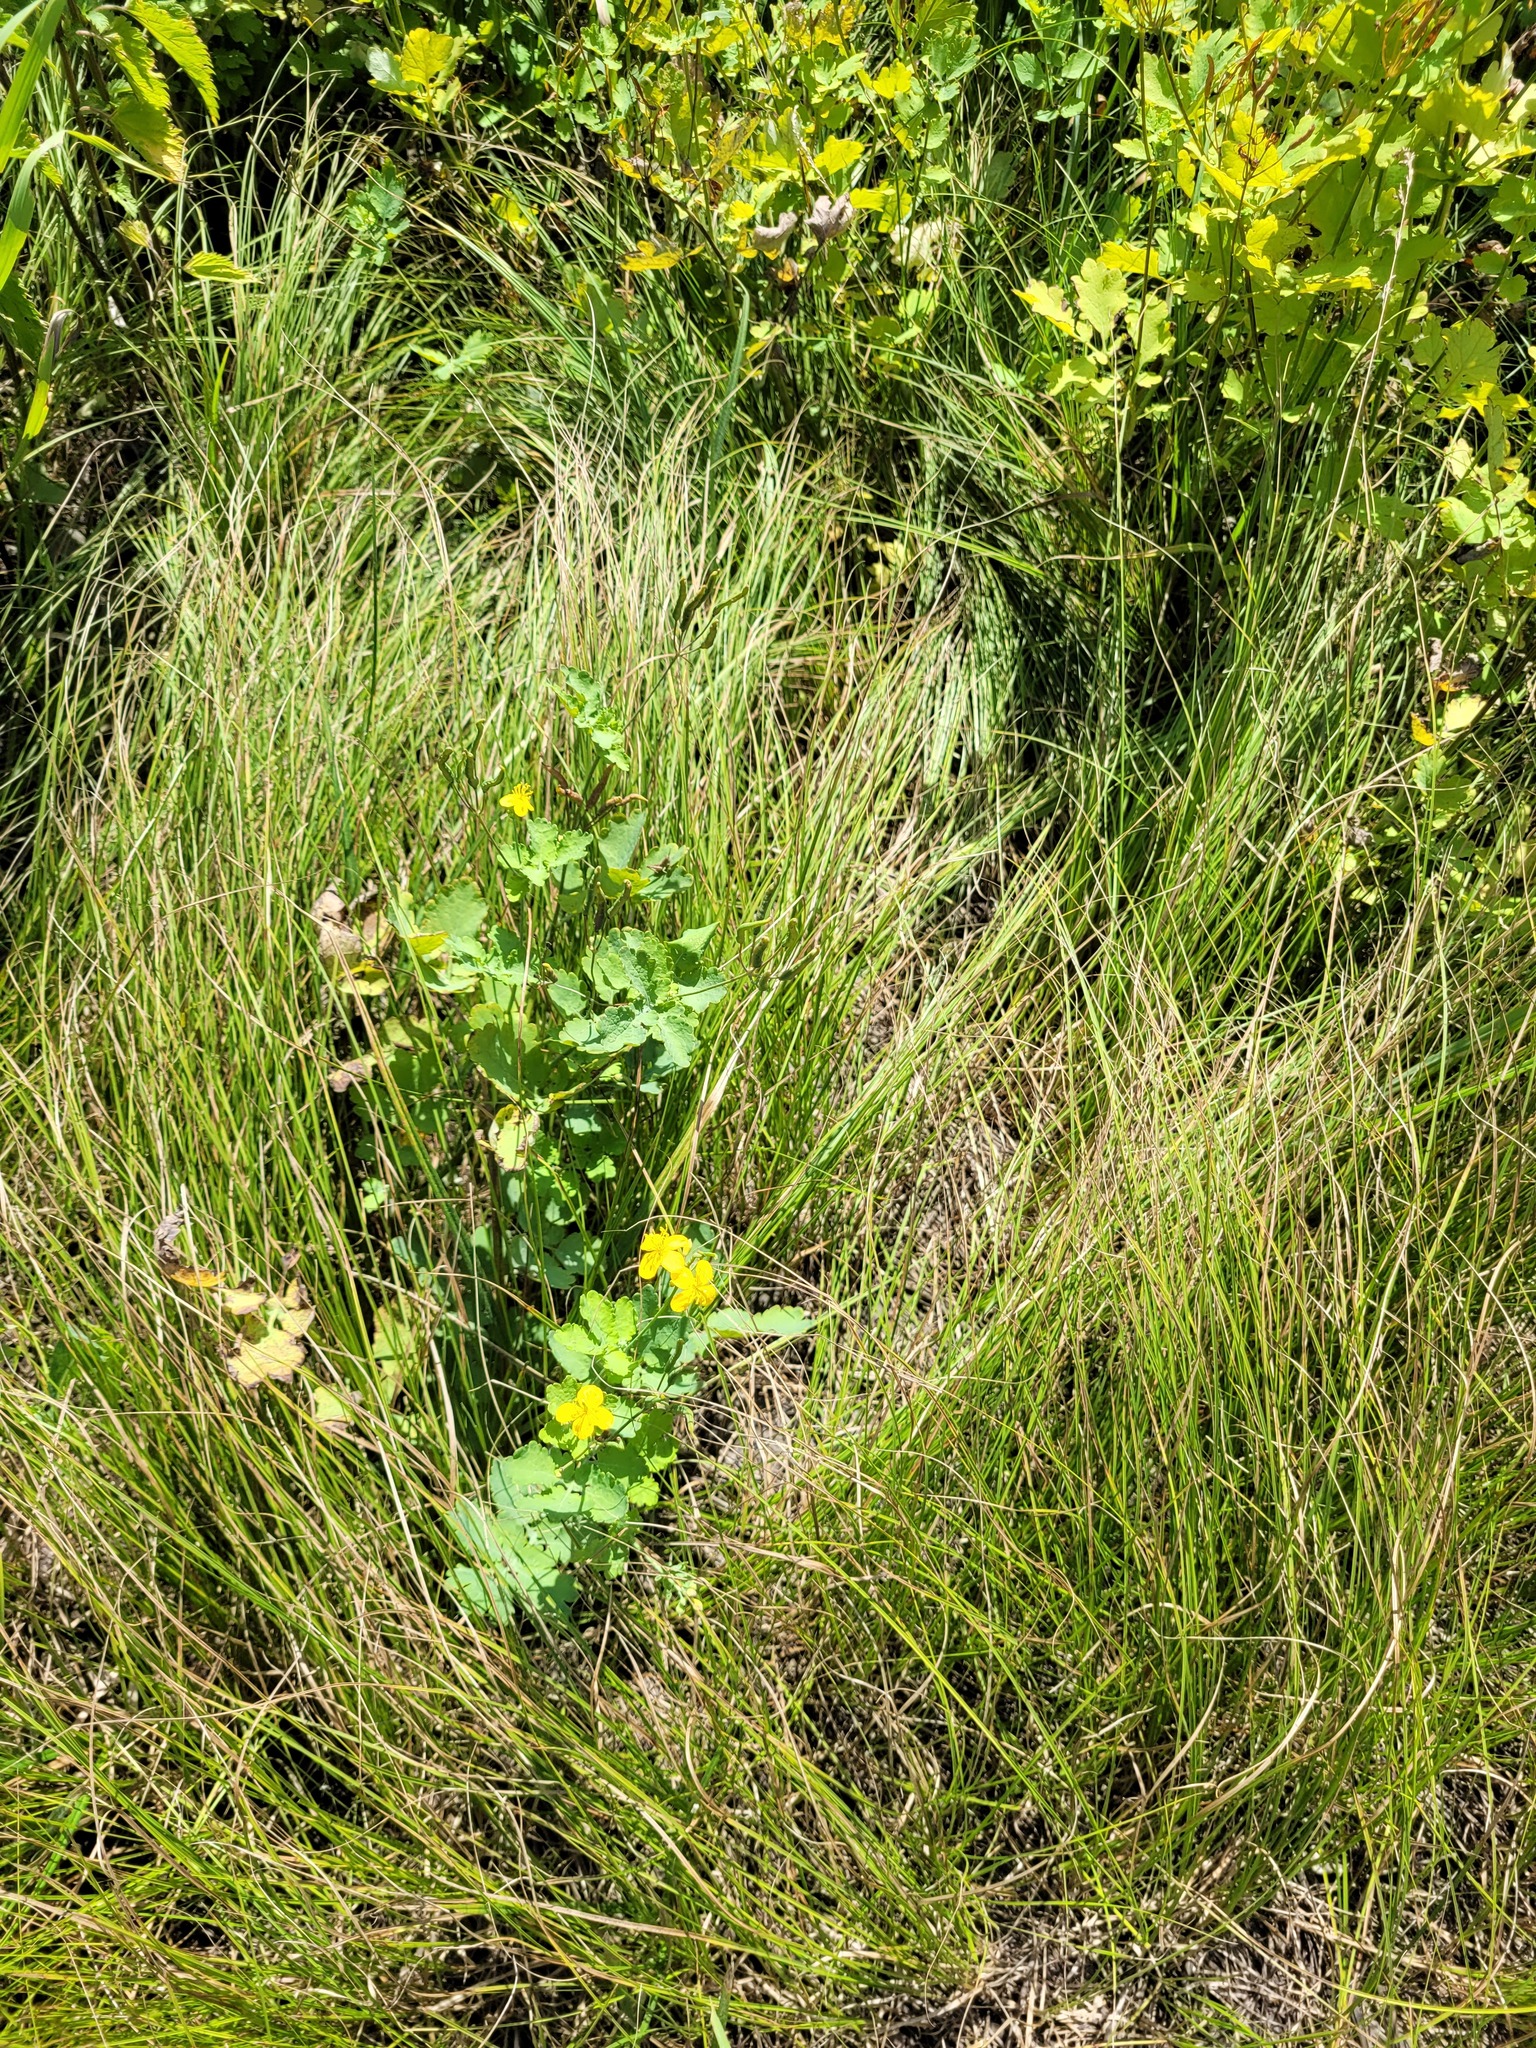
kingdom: Plantae
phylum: Tracheophyta
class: Magnoliopsida
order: Ranunculales
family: Papaveraceae
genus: Chelidonium
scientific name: Chelidonium majus
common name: Greater celandine
